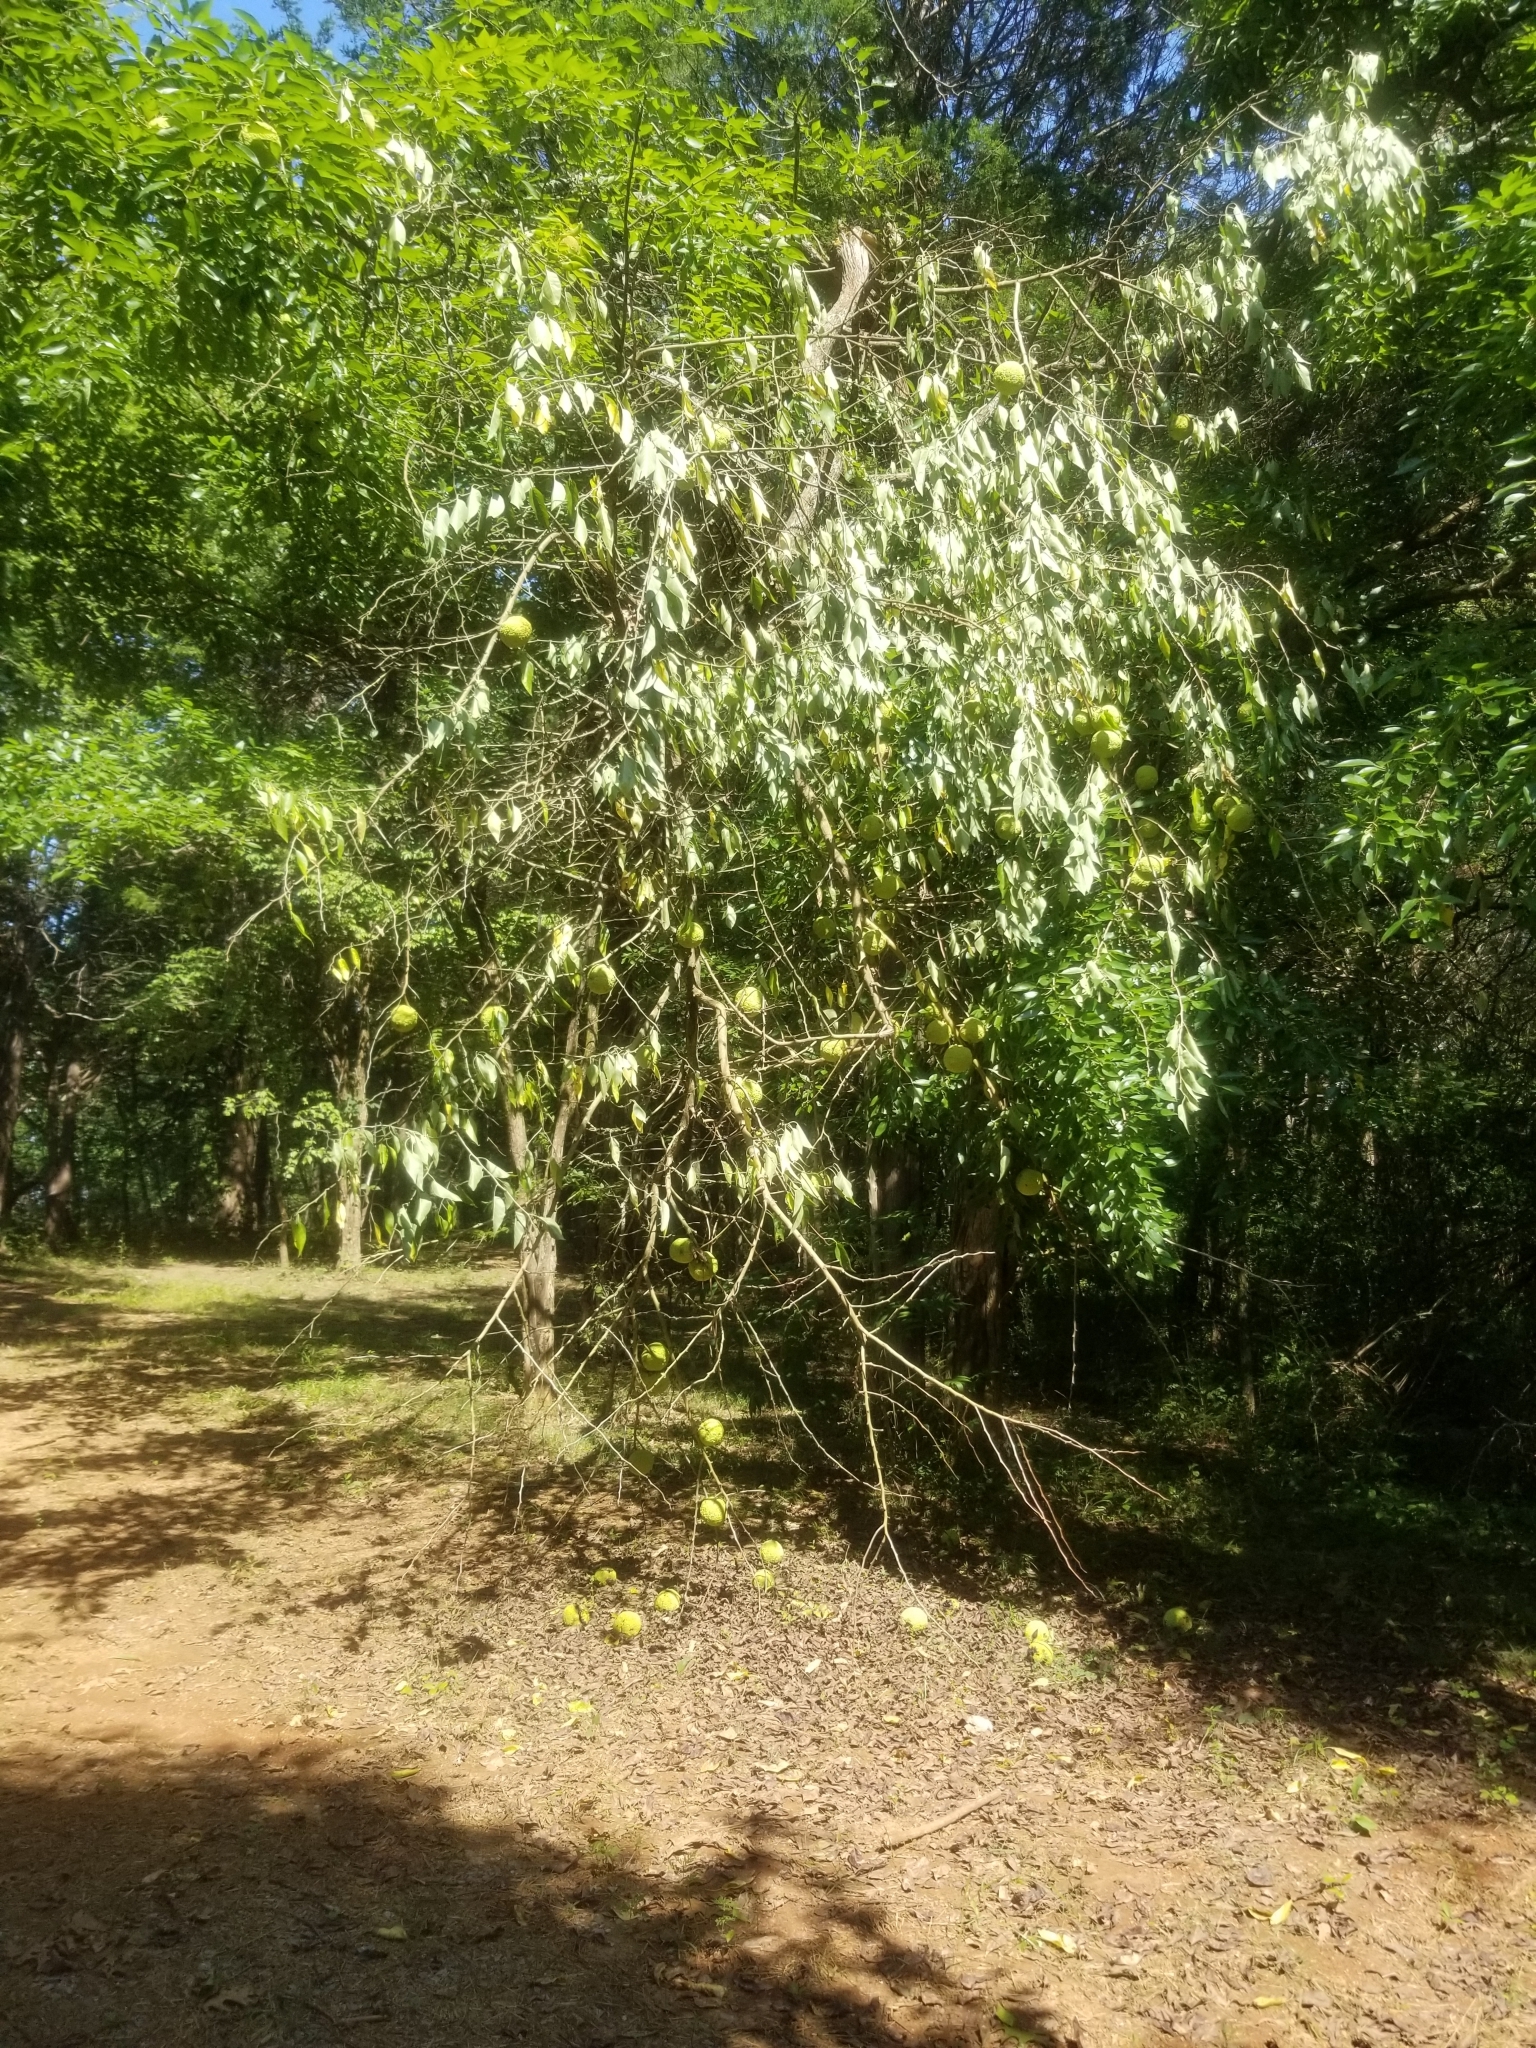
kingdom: Plantae
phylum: Tracheophyta
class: Magnoliopsida
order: Rosales
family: Moraceae
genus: Maclura
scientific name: Maclura pomifera
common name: Osage-orange
